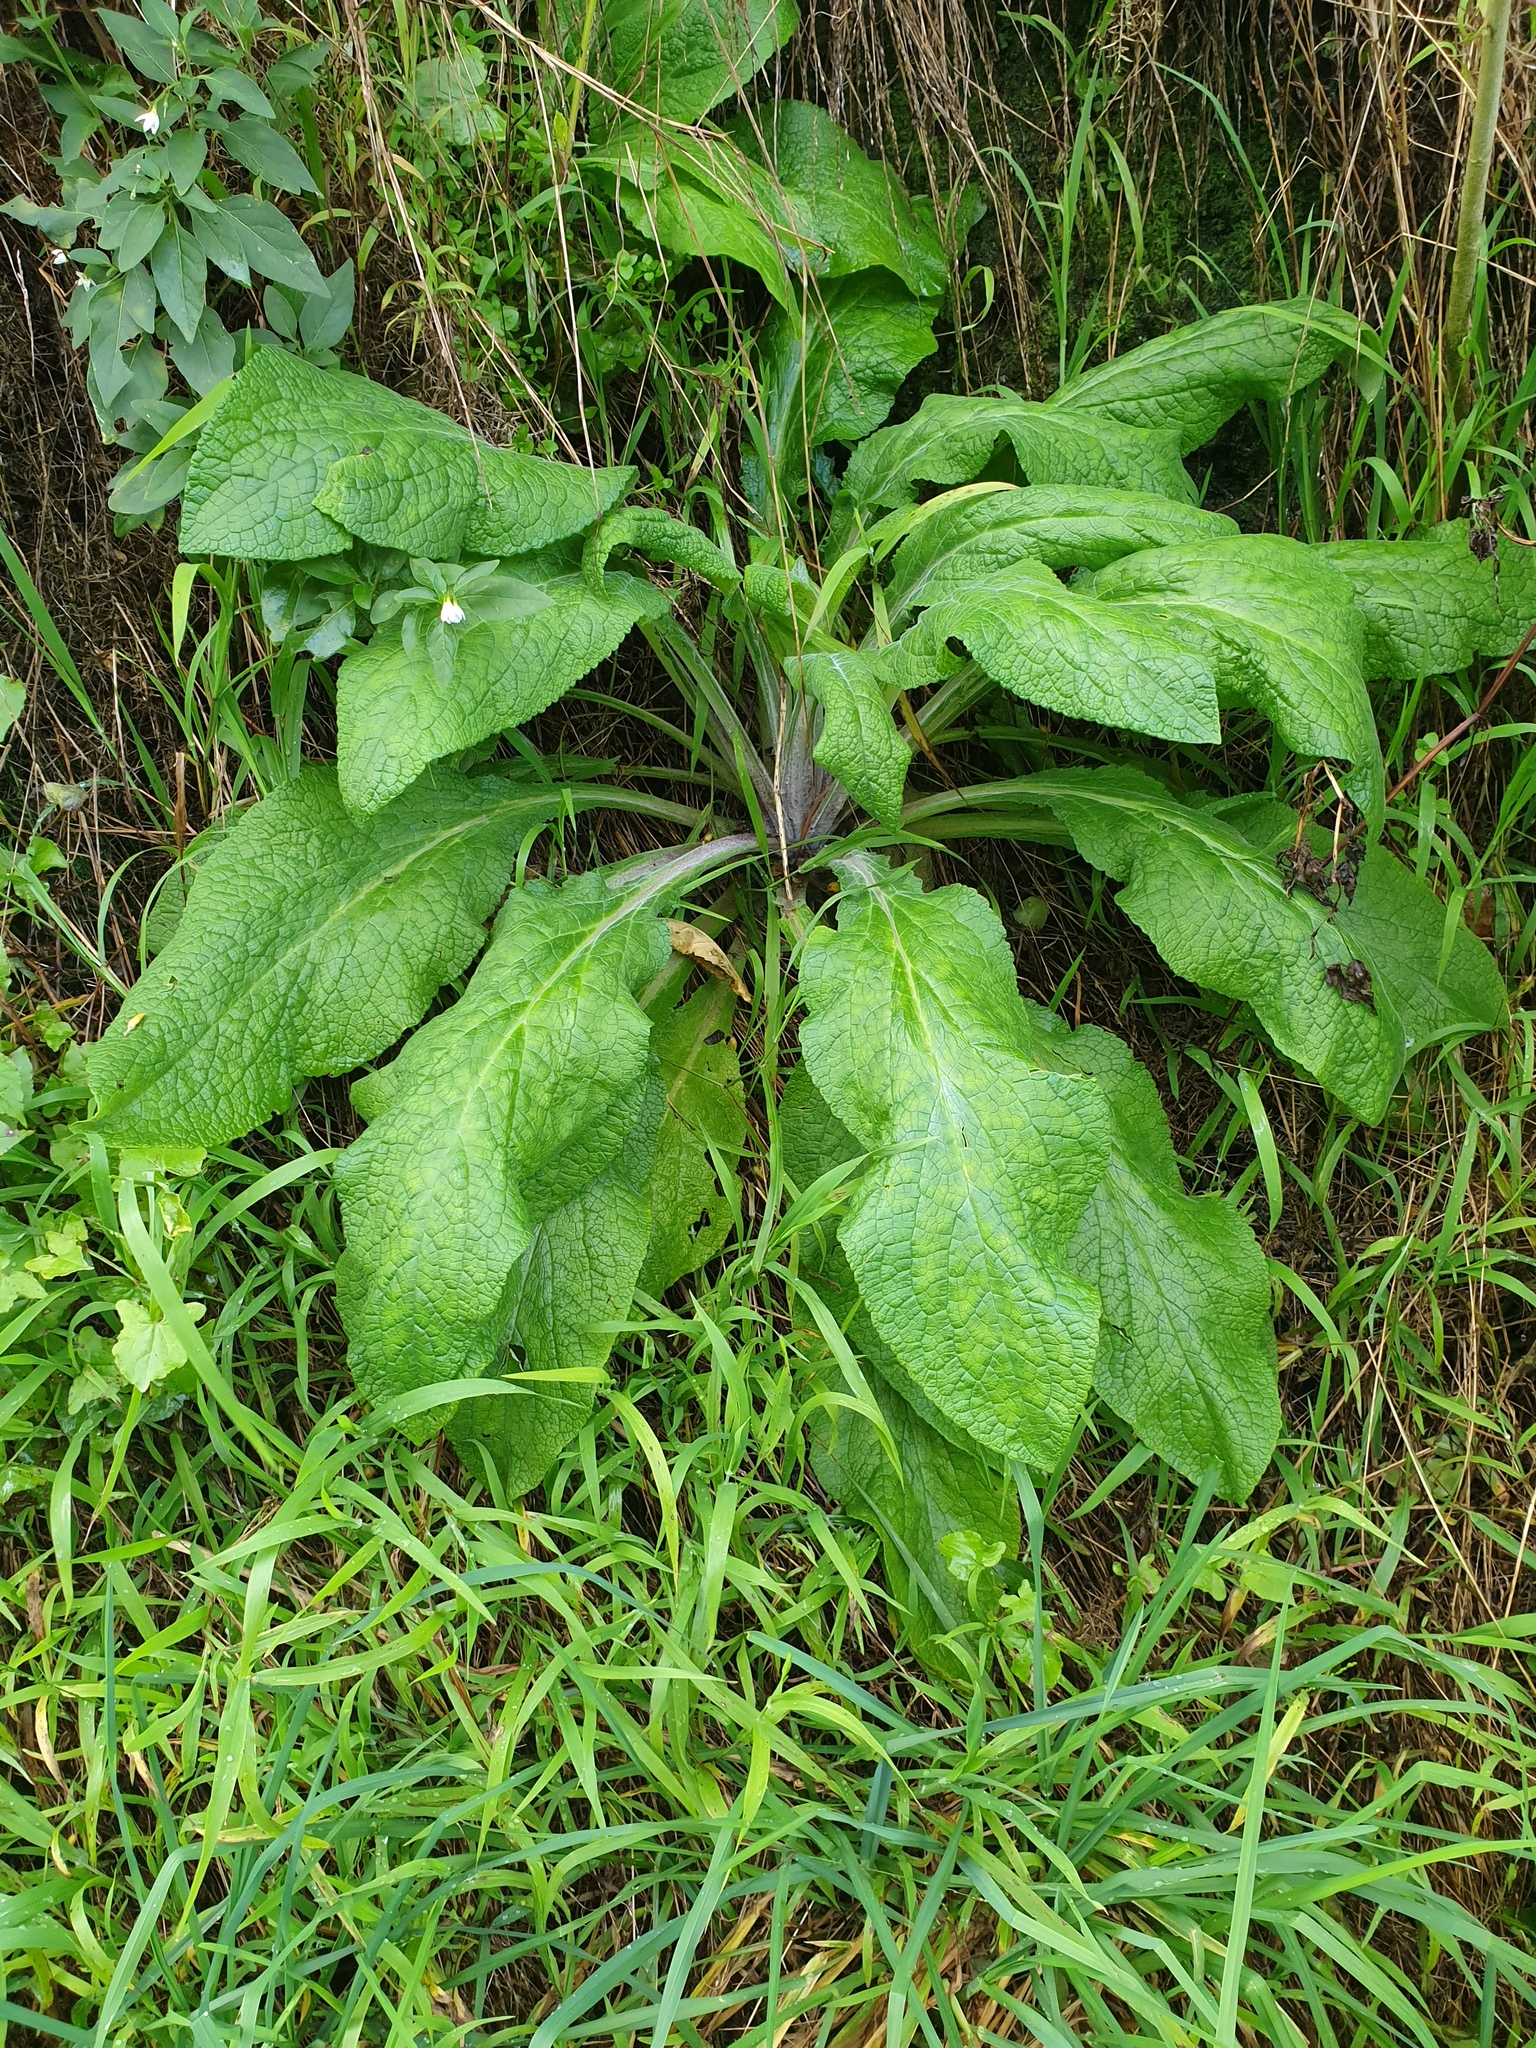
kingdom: Plantae
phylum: Tracheophyta
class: Magnoliopsida
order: Lamiales
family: Plantaginaceae
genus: Digitalis
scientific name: Digitalis purpurea
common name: Foxglove
